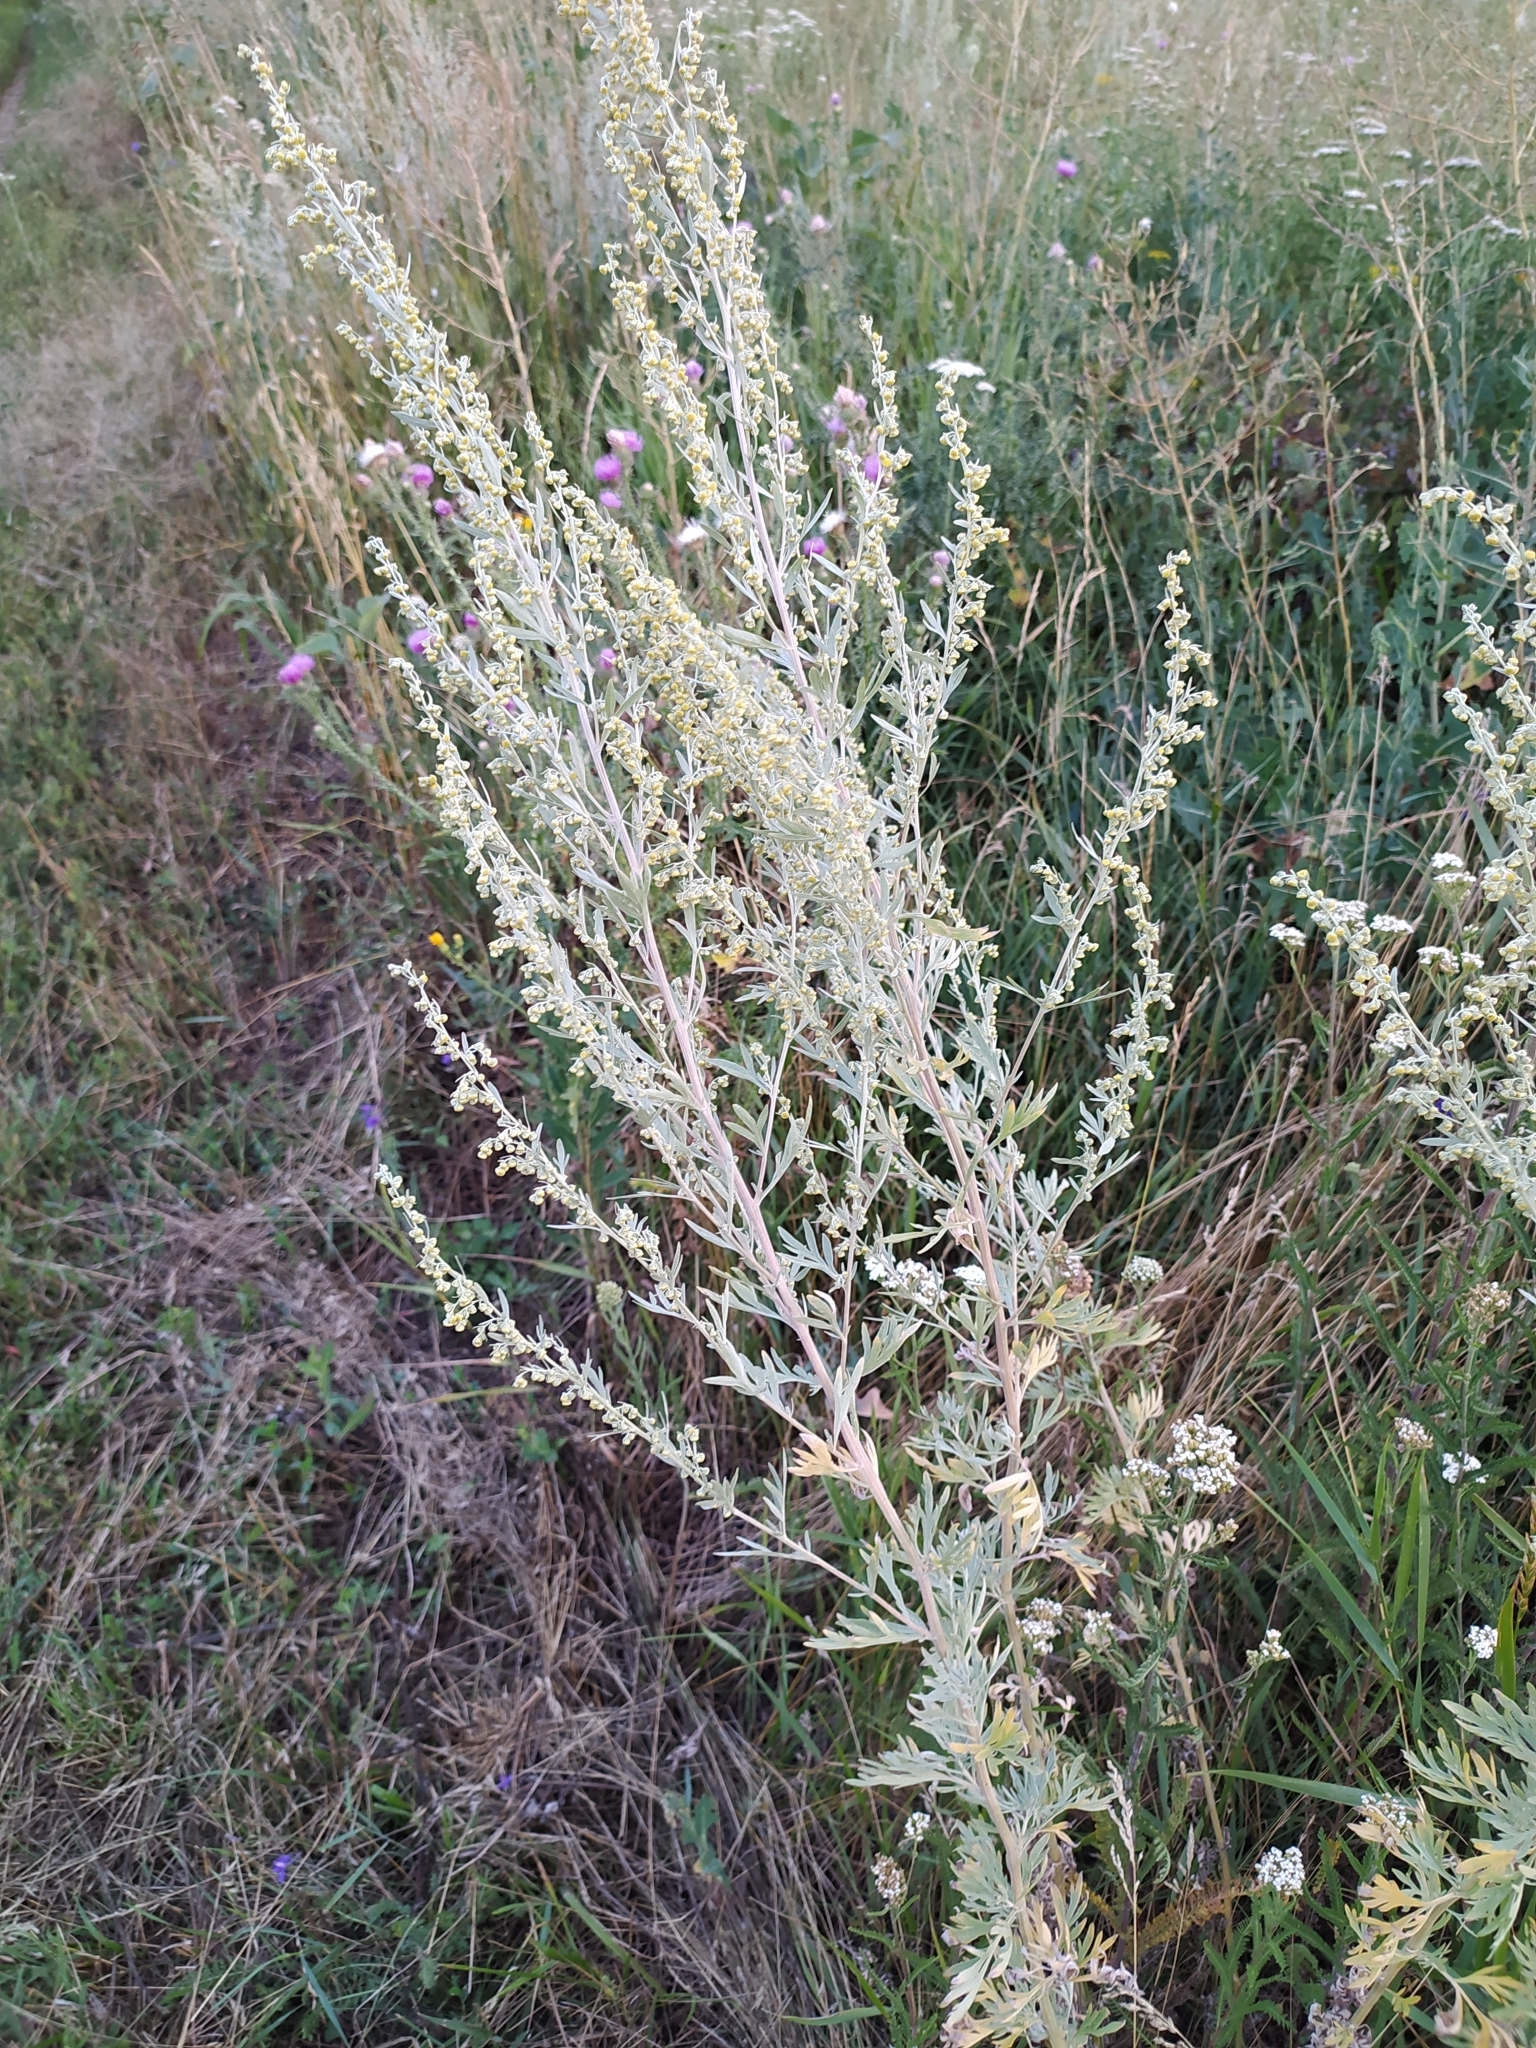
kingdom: Plantae
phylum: Tracheophyta
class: Magnoliopsida
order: Asterales
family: Asteraceae
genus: Artemisia
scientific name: Artemisia absinthium
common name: Wormwood
